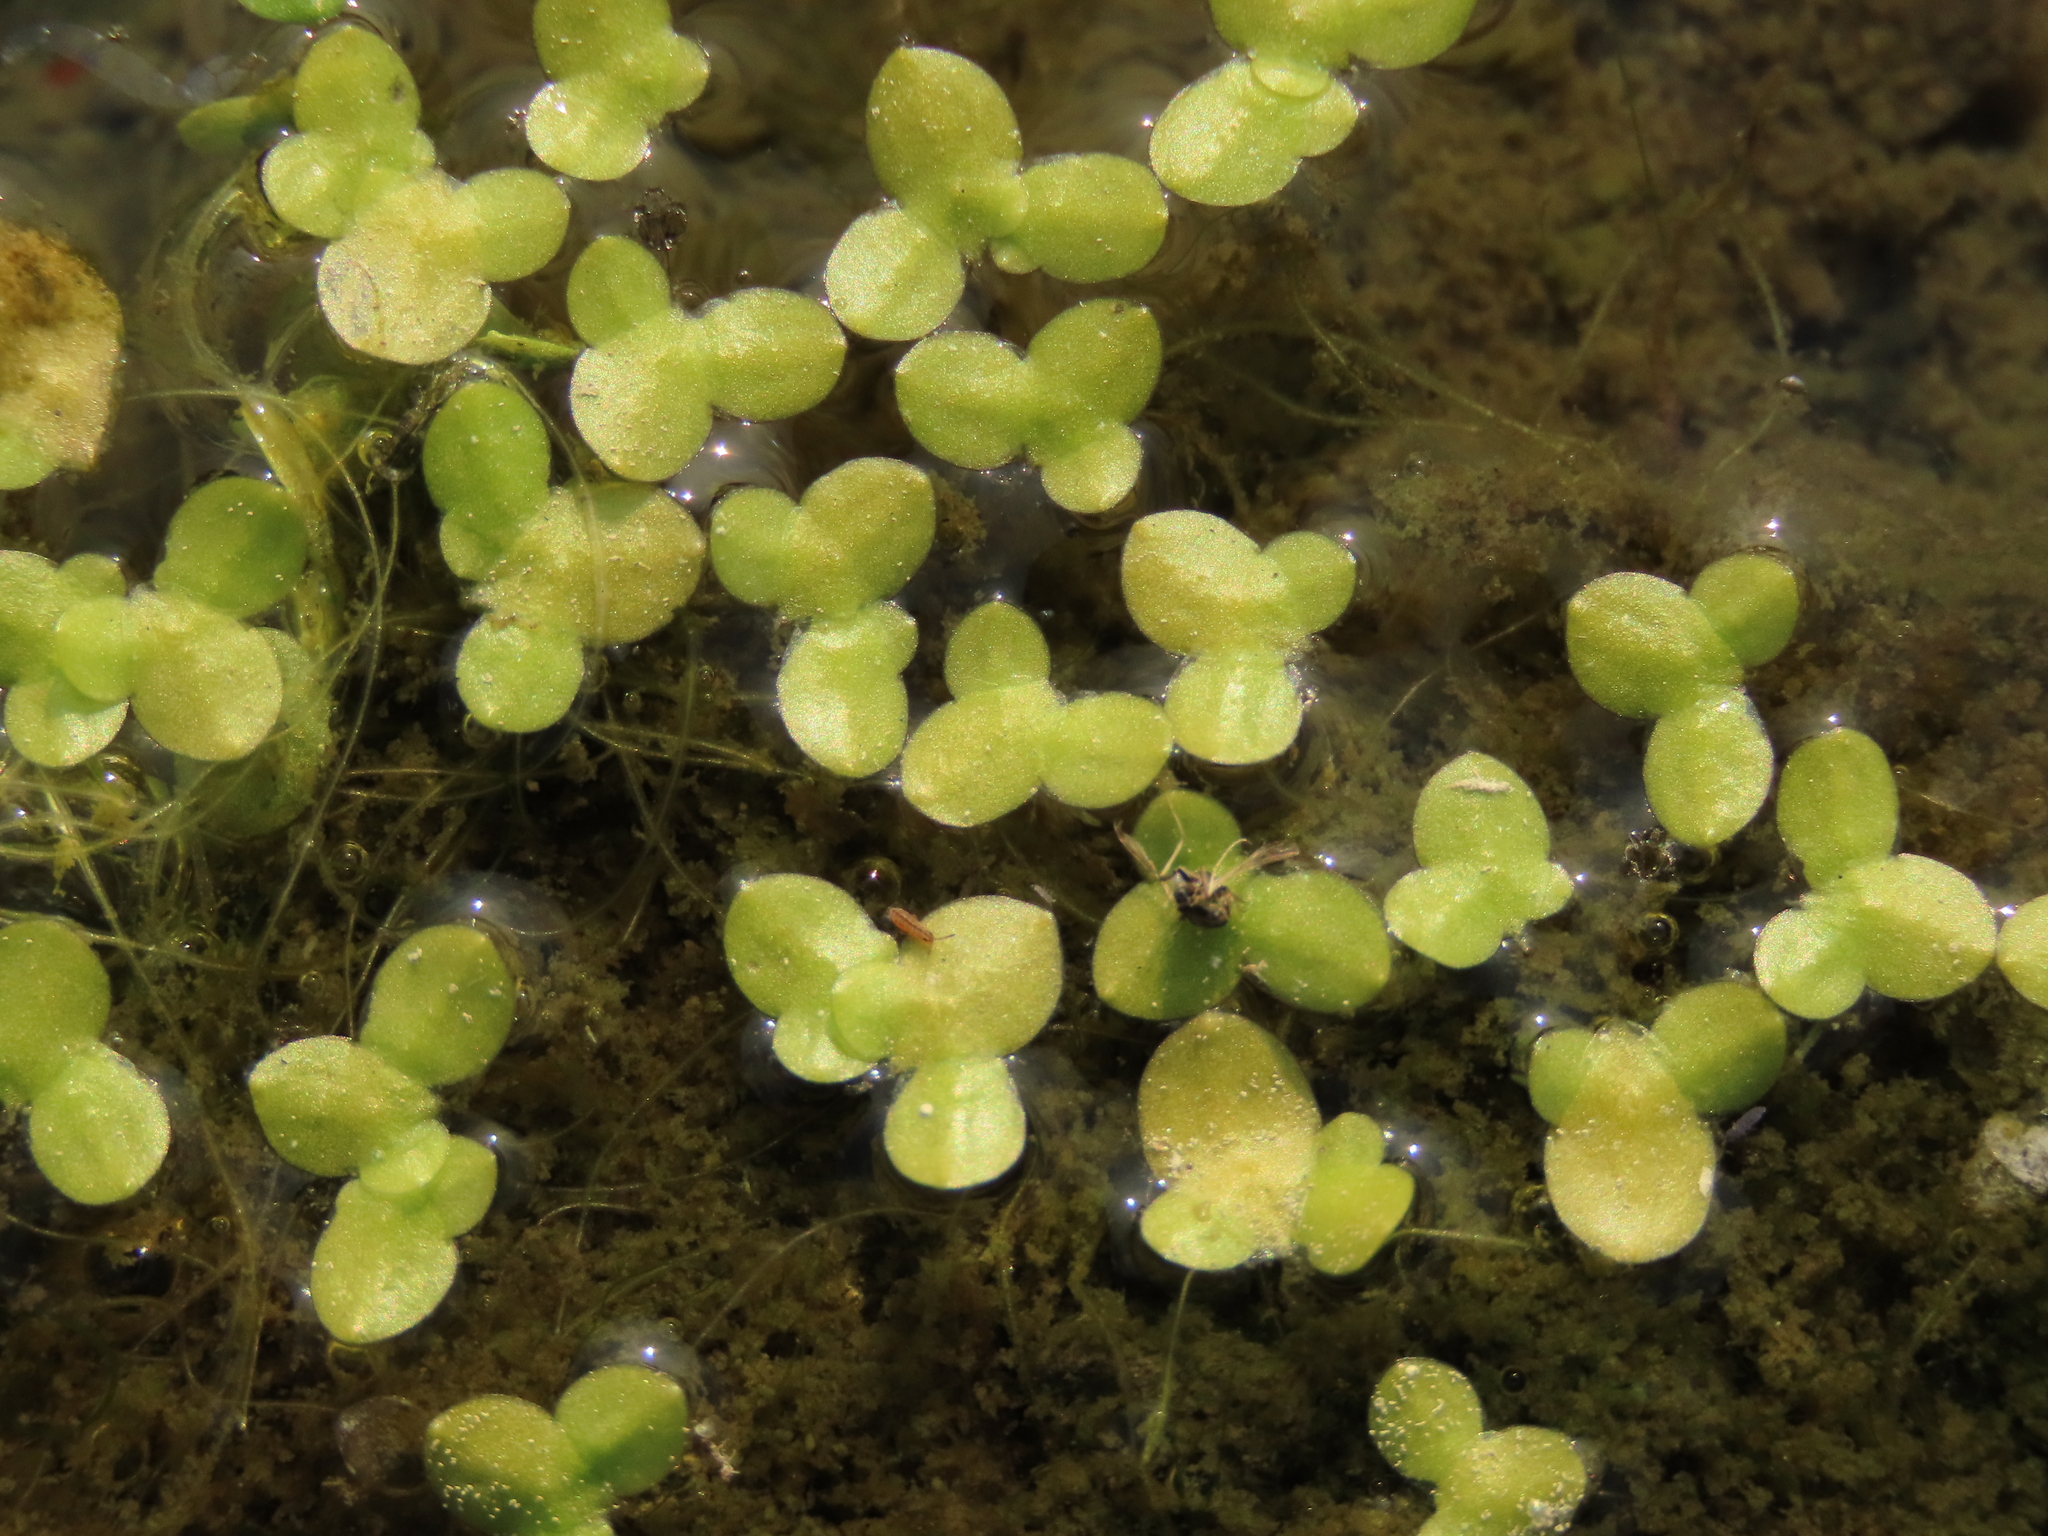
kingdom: Plantae
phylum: Tracheophyta
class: Liliopsida
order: Alismatales
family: Araceae
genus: Lemna
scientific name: Lemna aequinoctialis
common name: Duckweed
